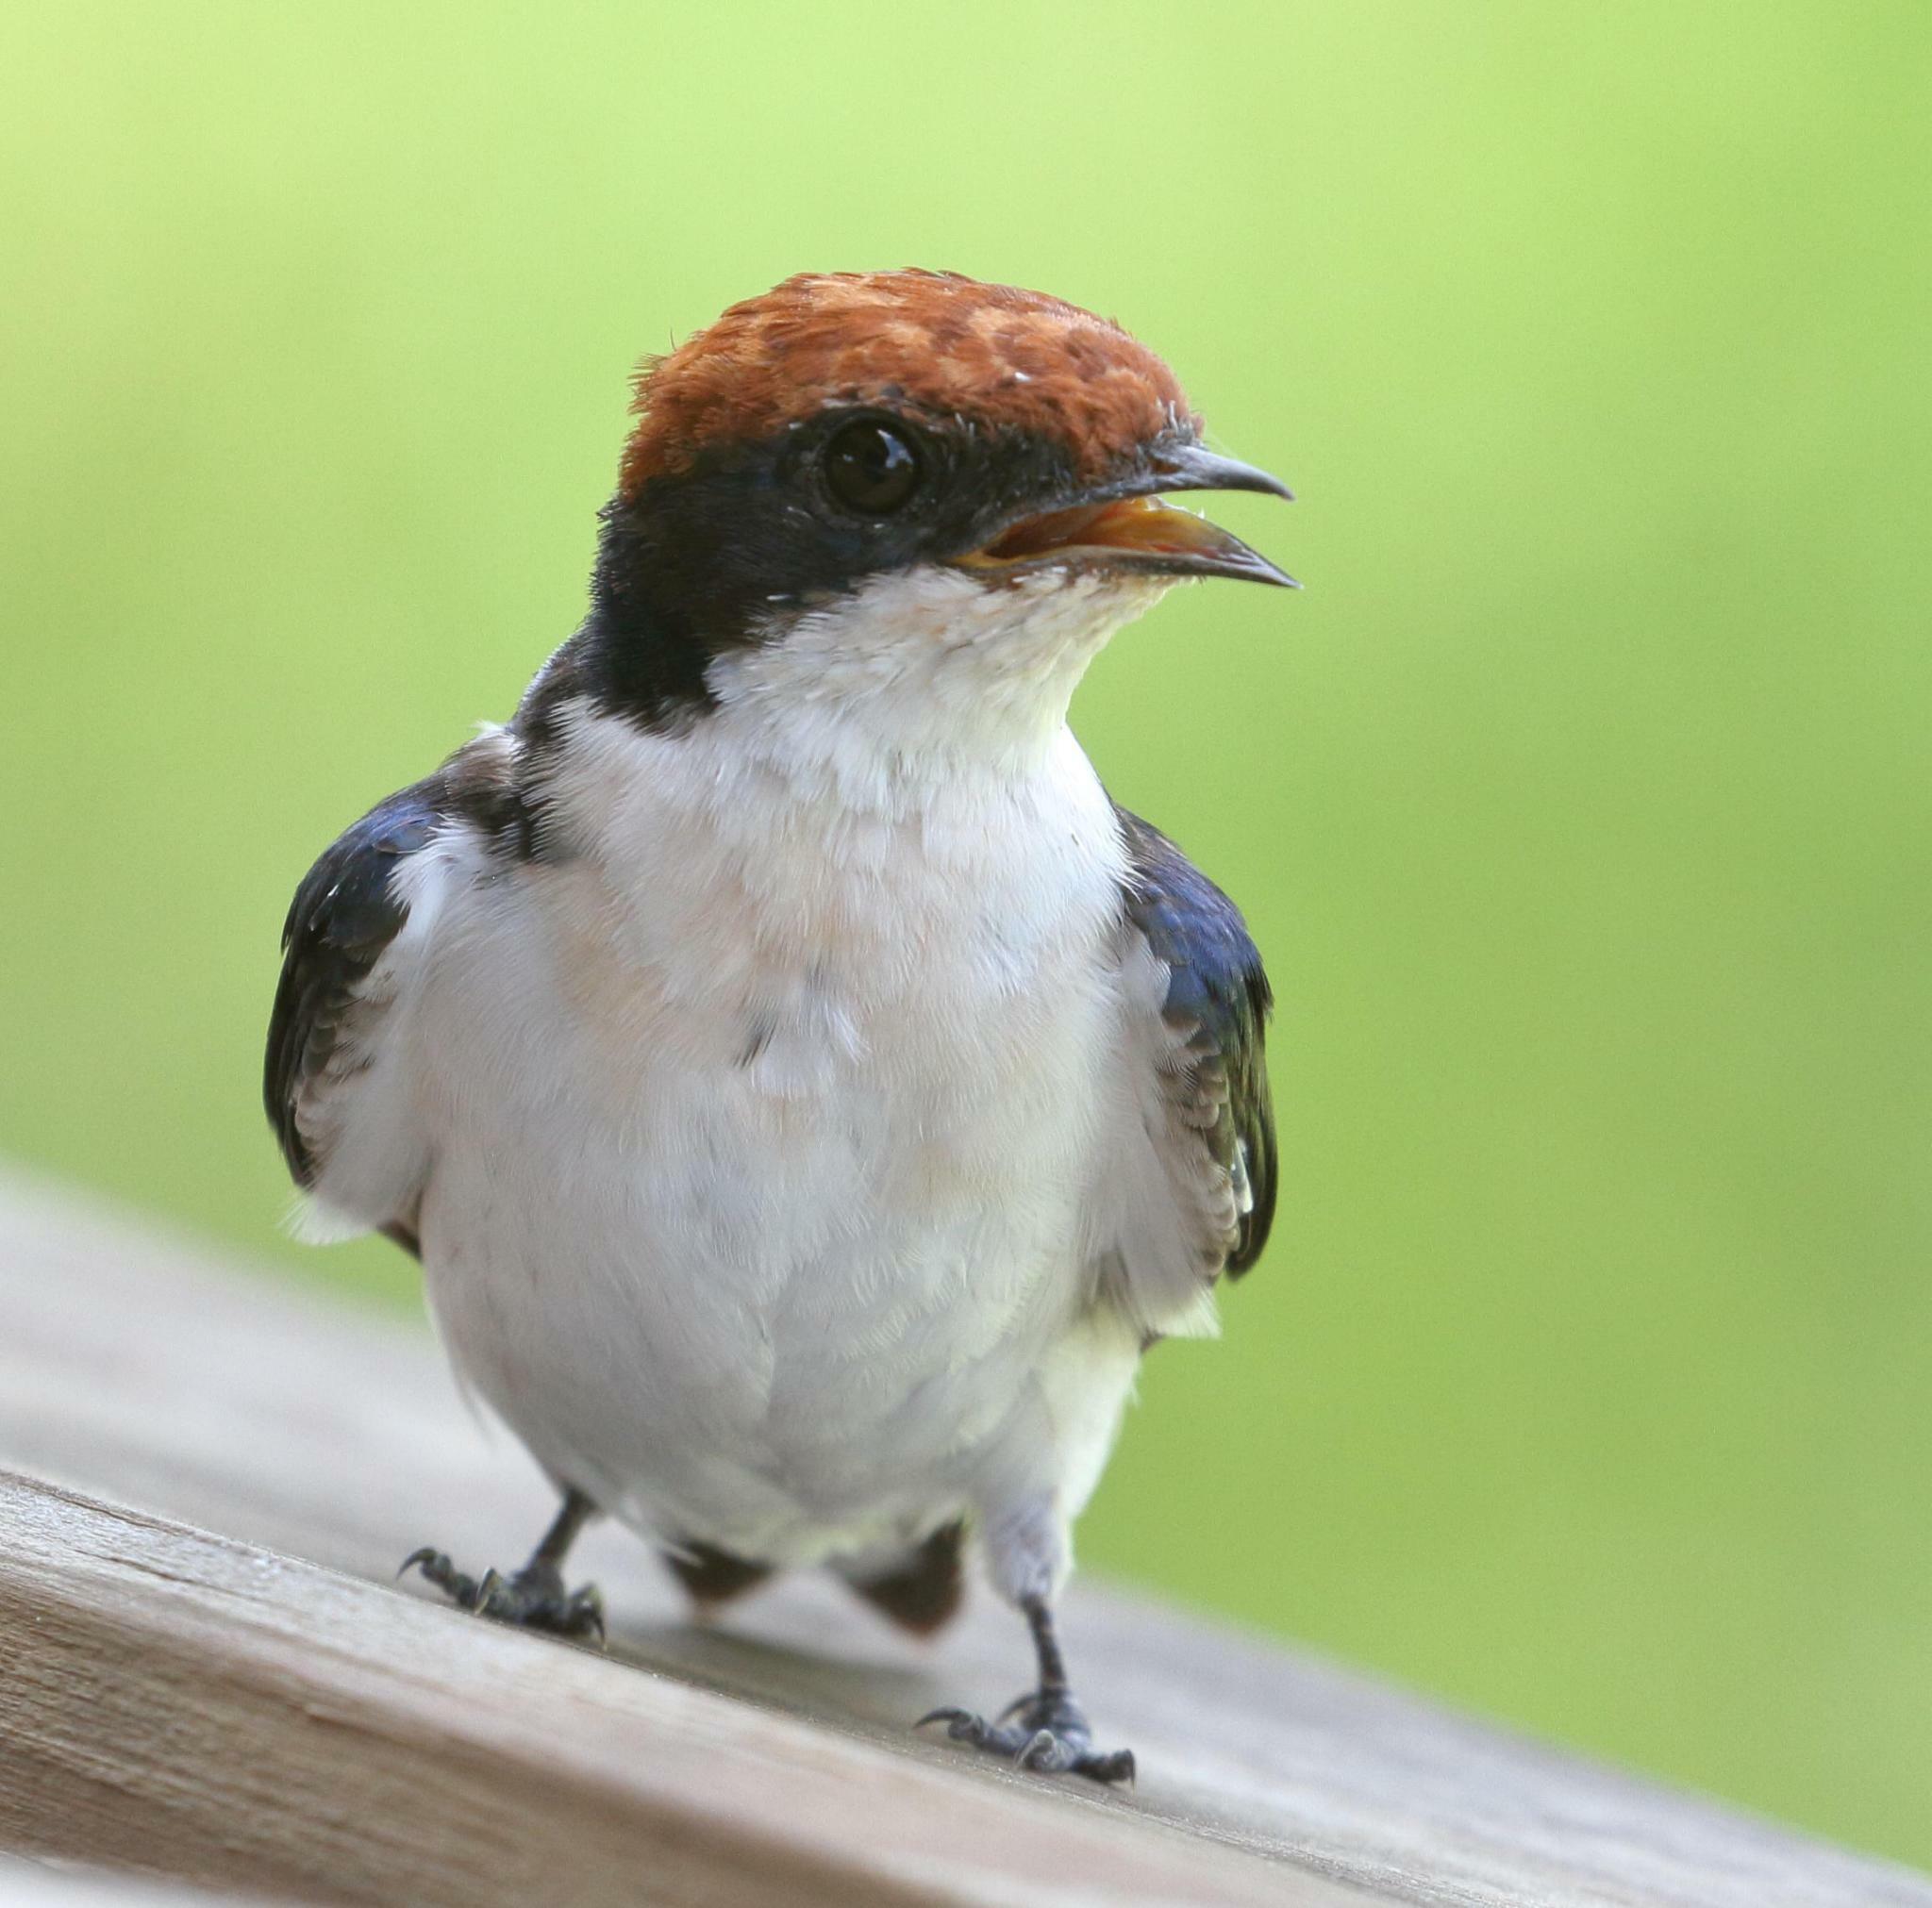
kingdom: Animalia
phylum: Chordata
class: Aves
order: Passeriformes
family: Hirundinidae
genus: Hirundo
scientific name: Hirundo smithii
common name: Wire-tailed swallow
